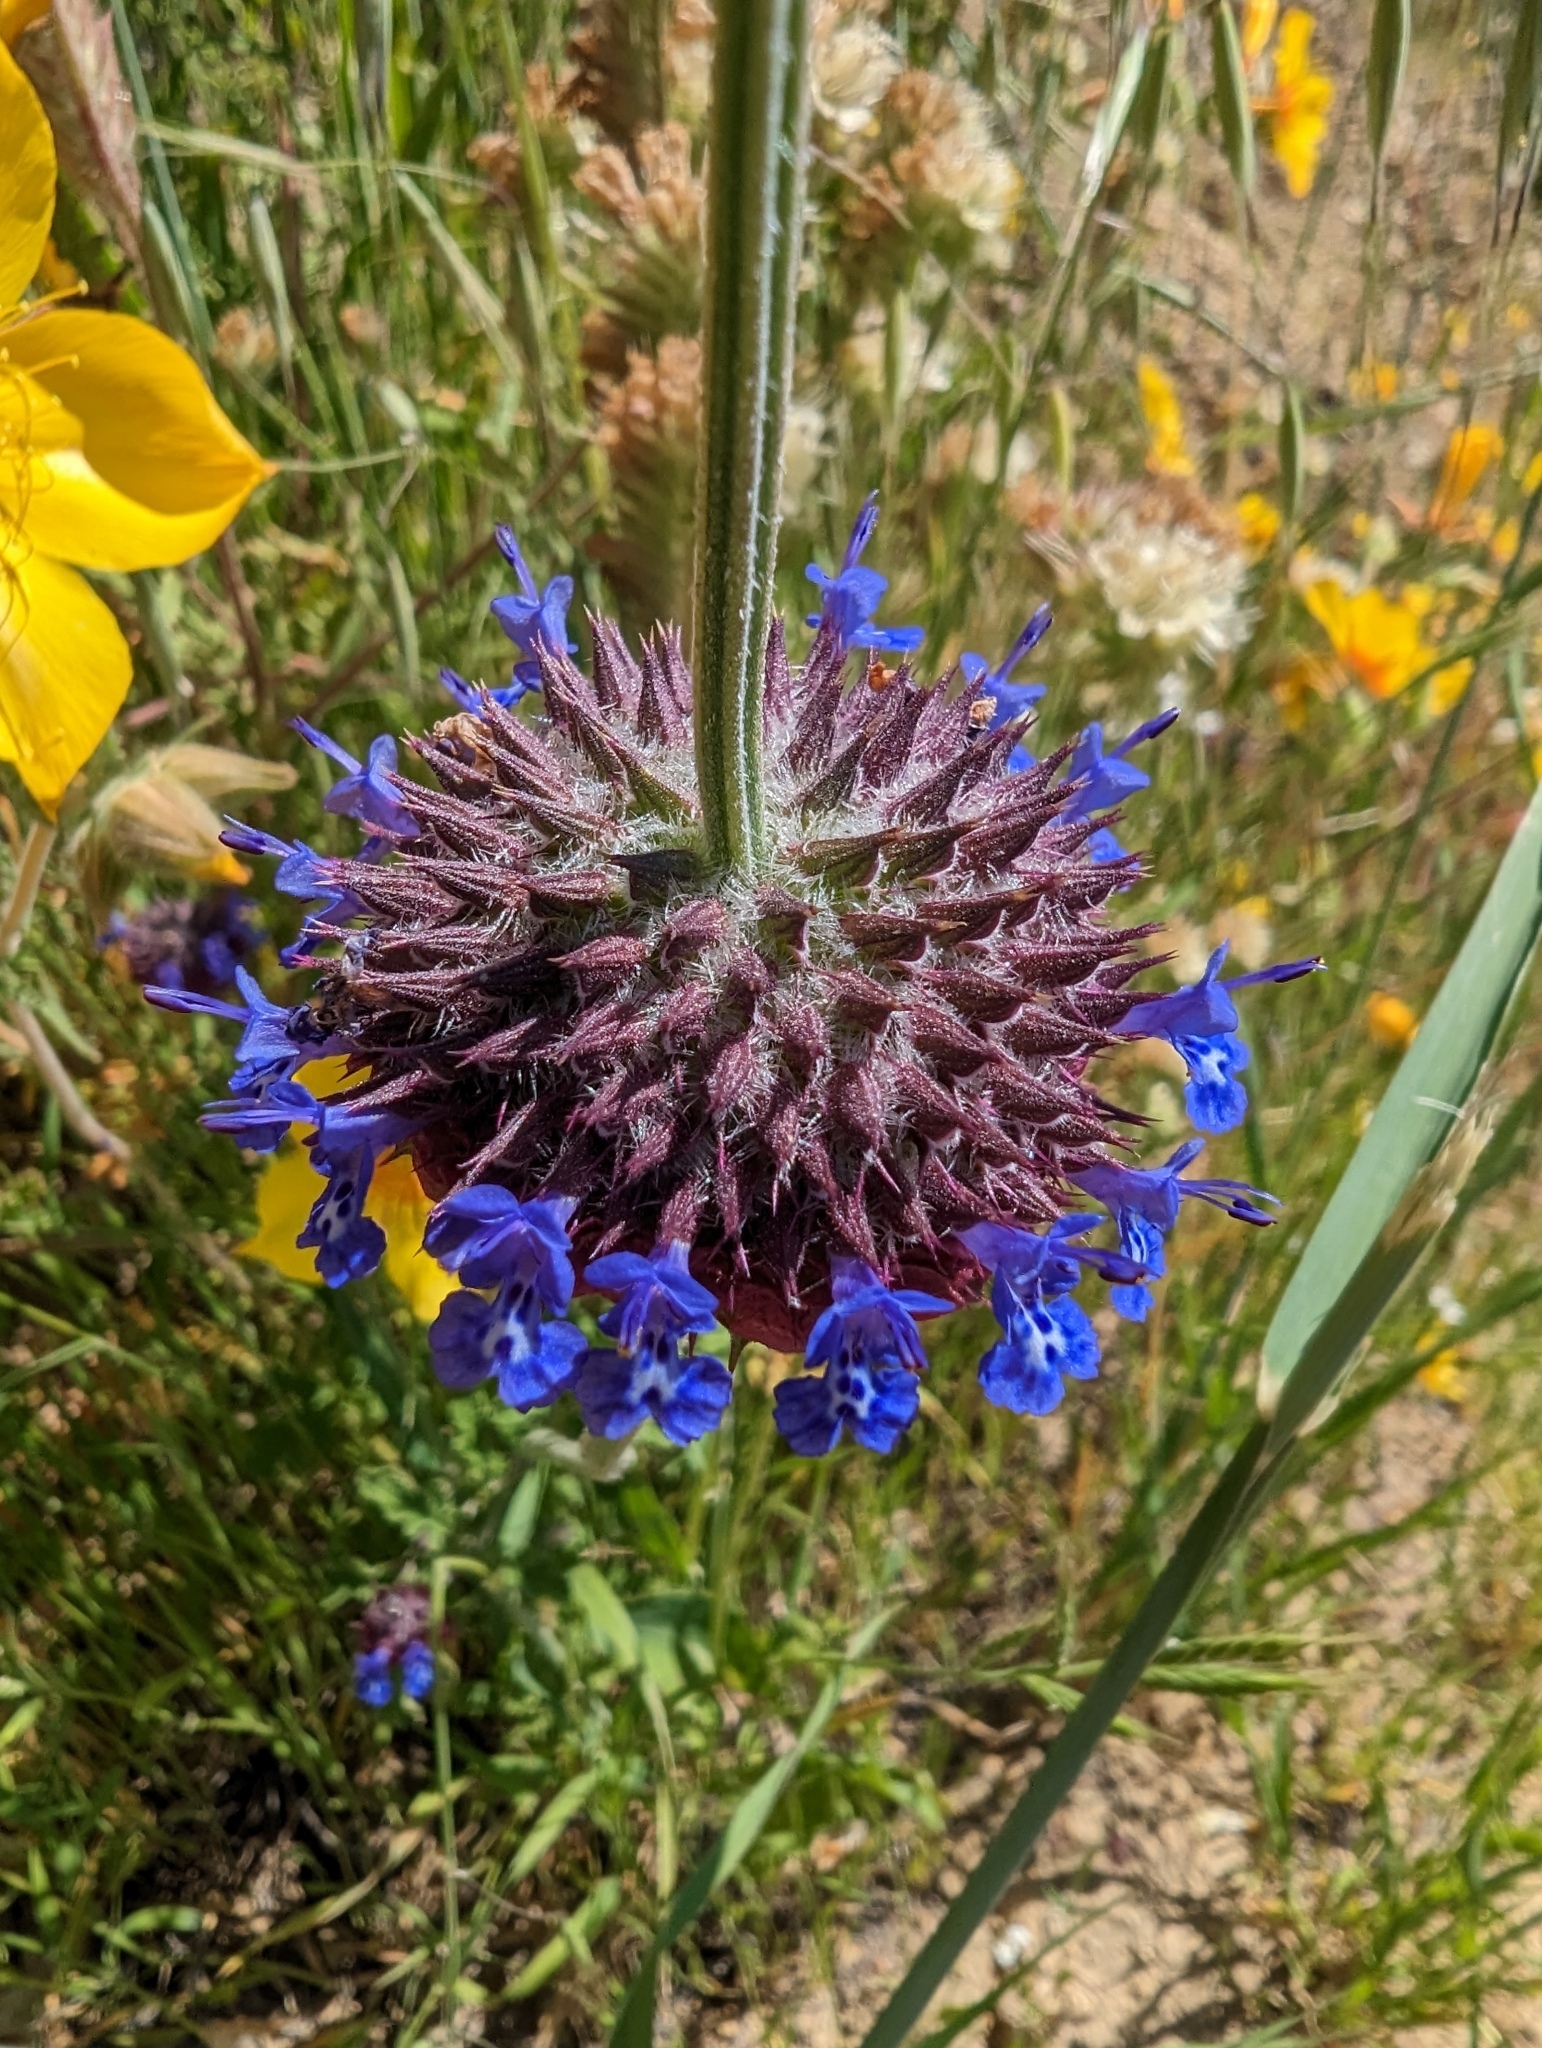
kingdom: Plantae
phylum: Tracheophyta
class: Magnoliopsida
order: Lamiales
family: Lamiaceae
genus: Salvia
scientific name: Salvia columbariae
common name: Chia
